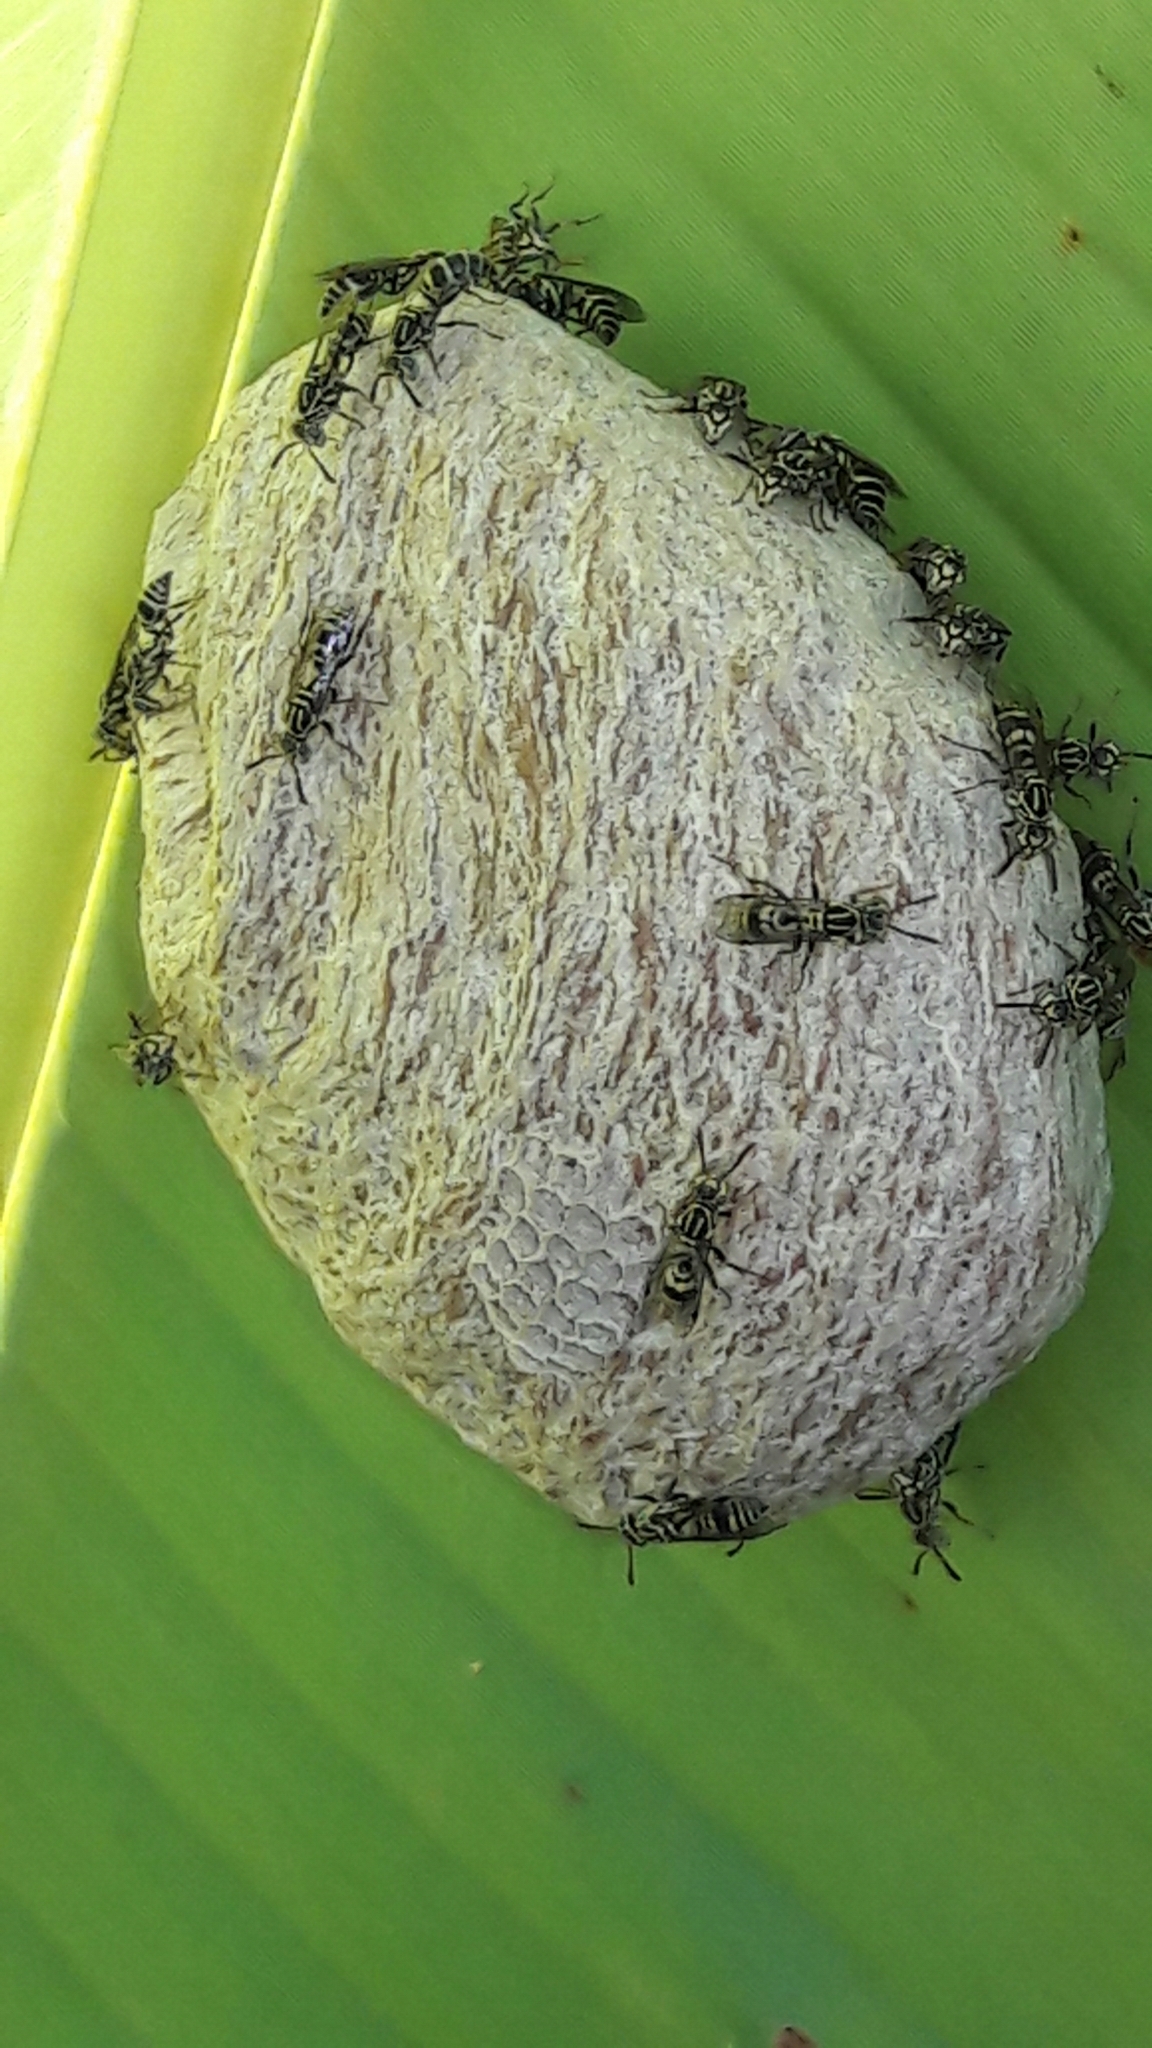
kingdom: Animalia
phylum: Arthropoda
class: Insecta
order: Hymenoptera
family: Vespidae
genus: Protopolybia
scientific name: Protopolybia exigua
